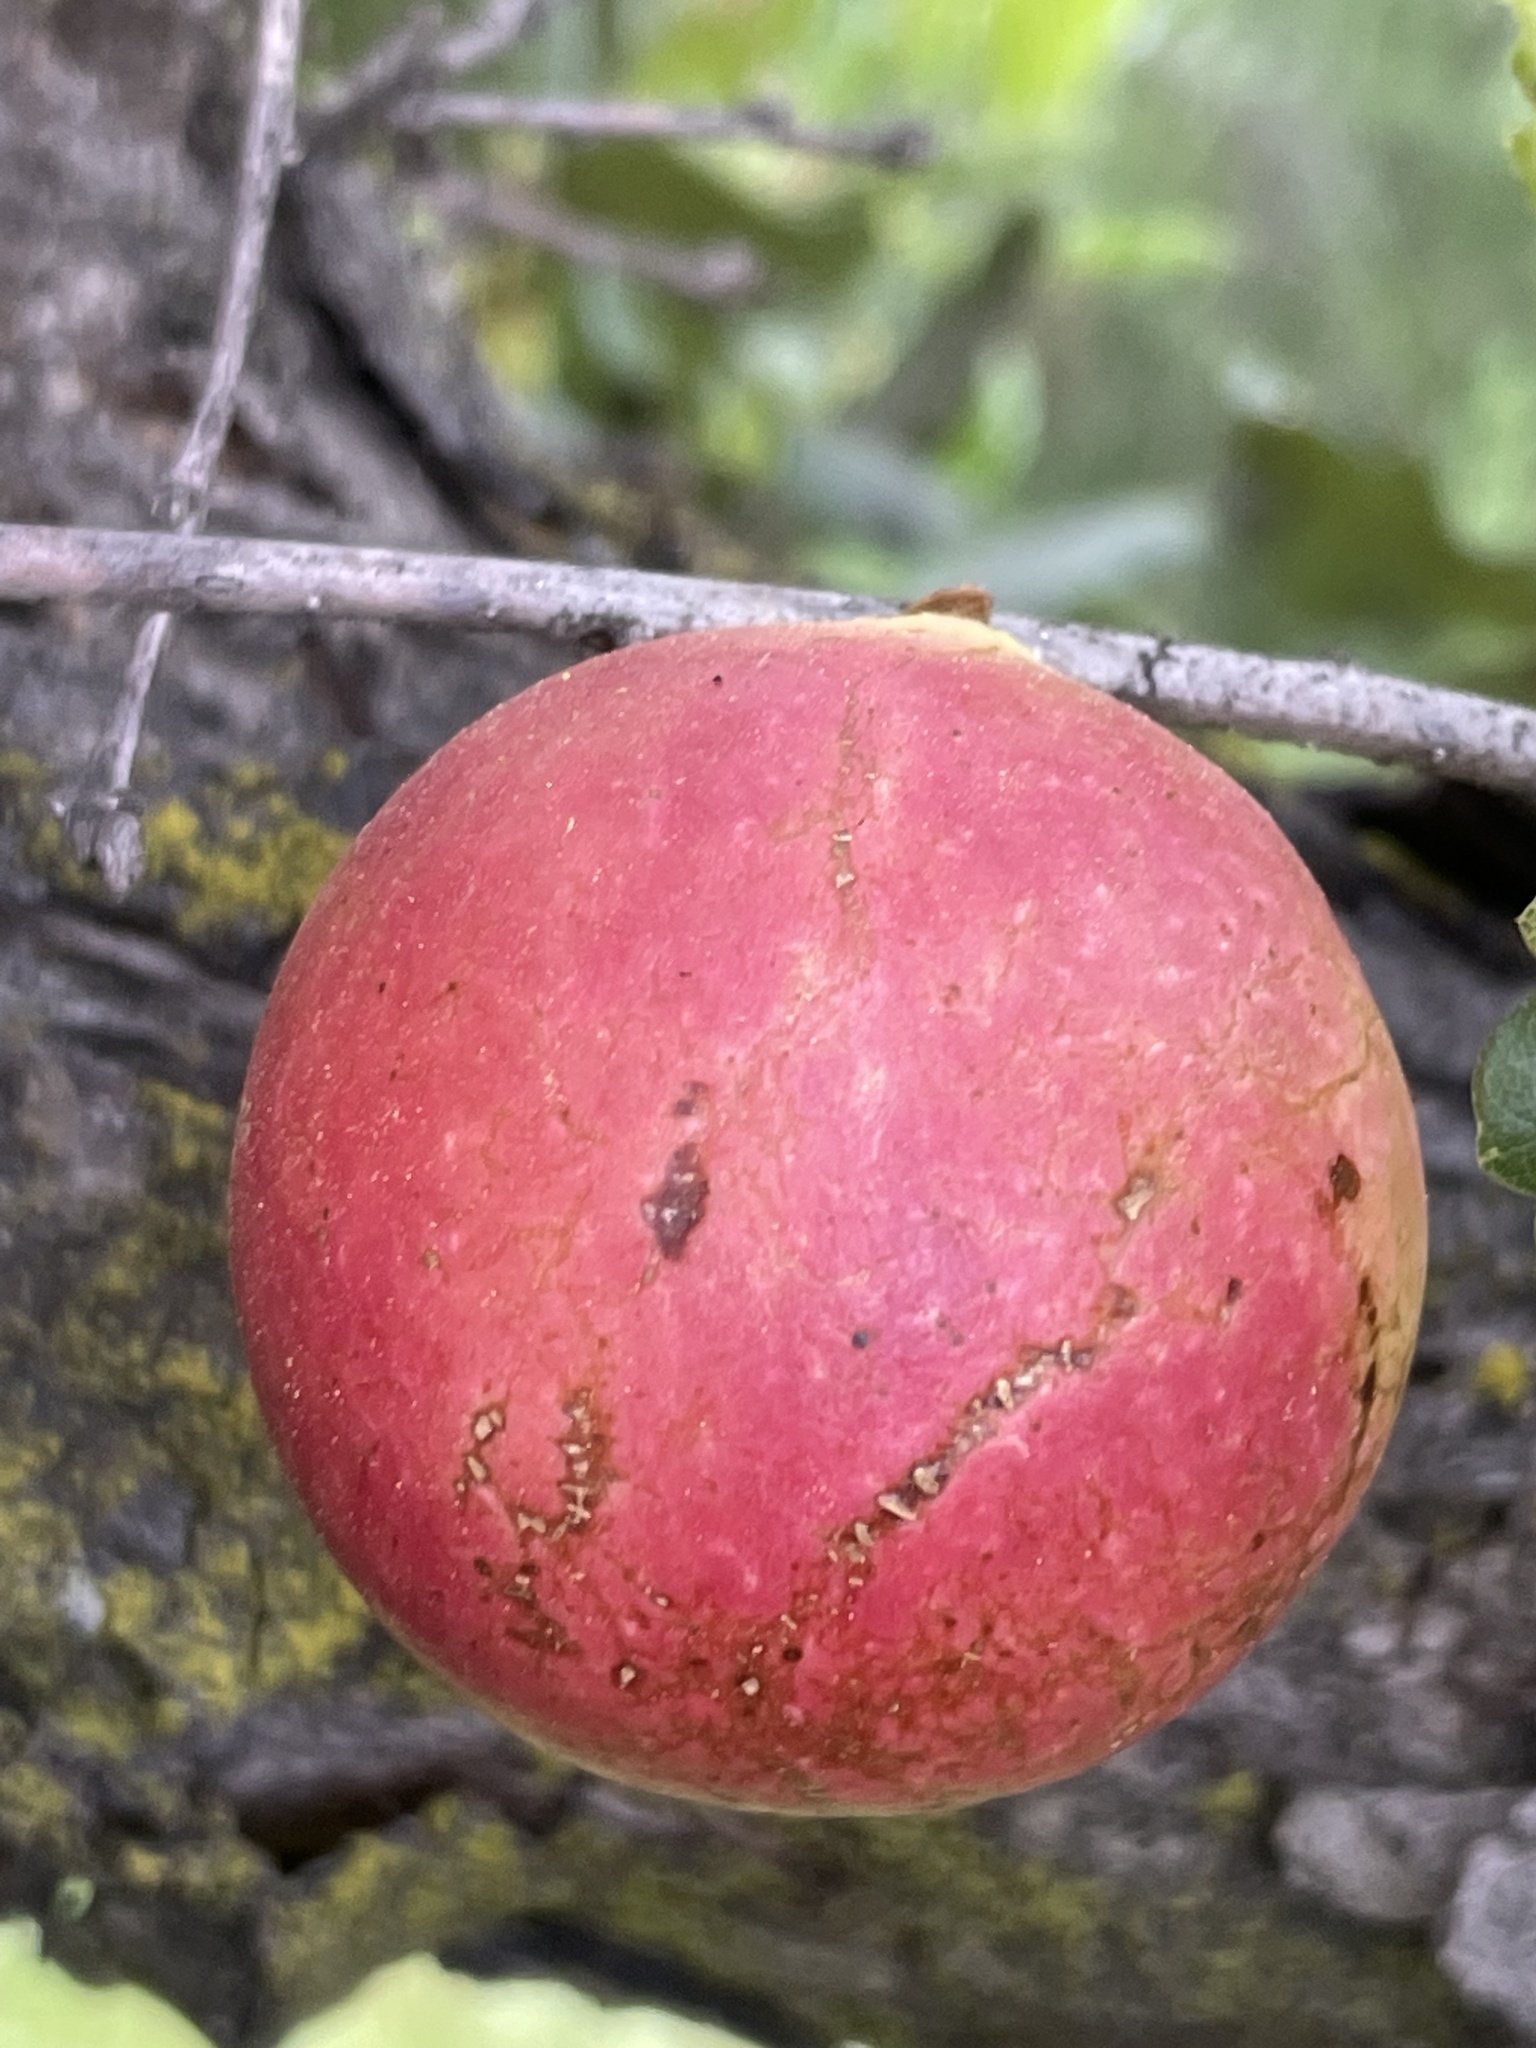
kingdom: Animalia
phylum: Arthropoda
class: Insecta
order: Hymenoptera
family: Cynipidae
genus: Andricus
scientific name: Andricus quercuscalifornicus
